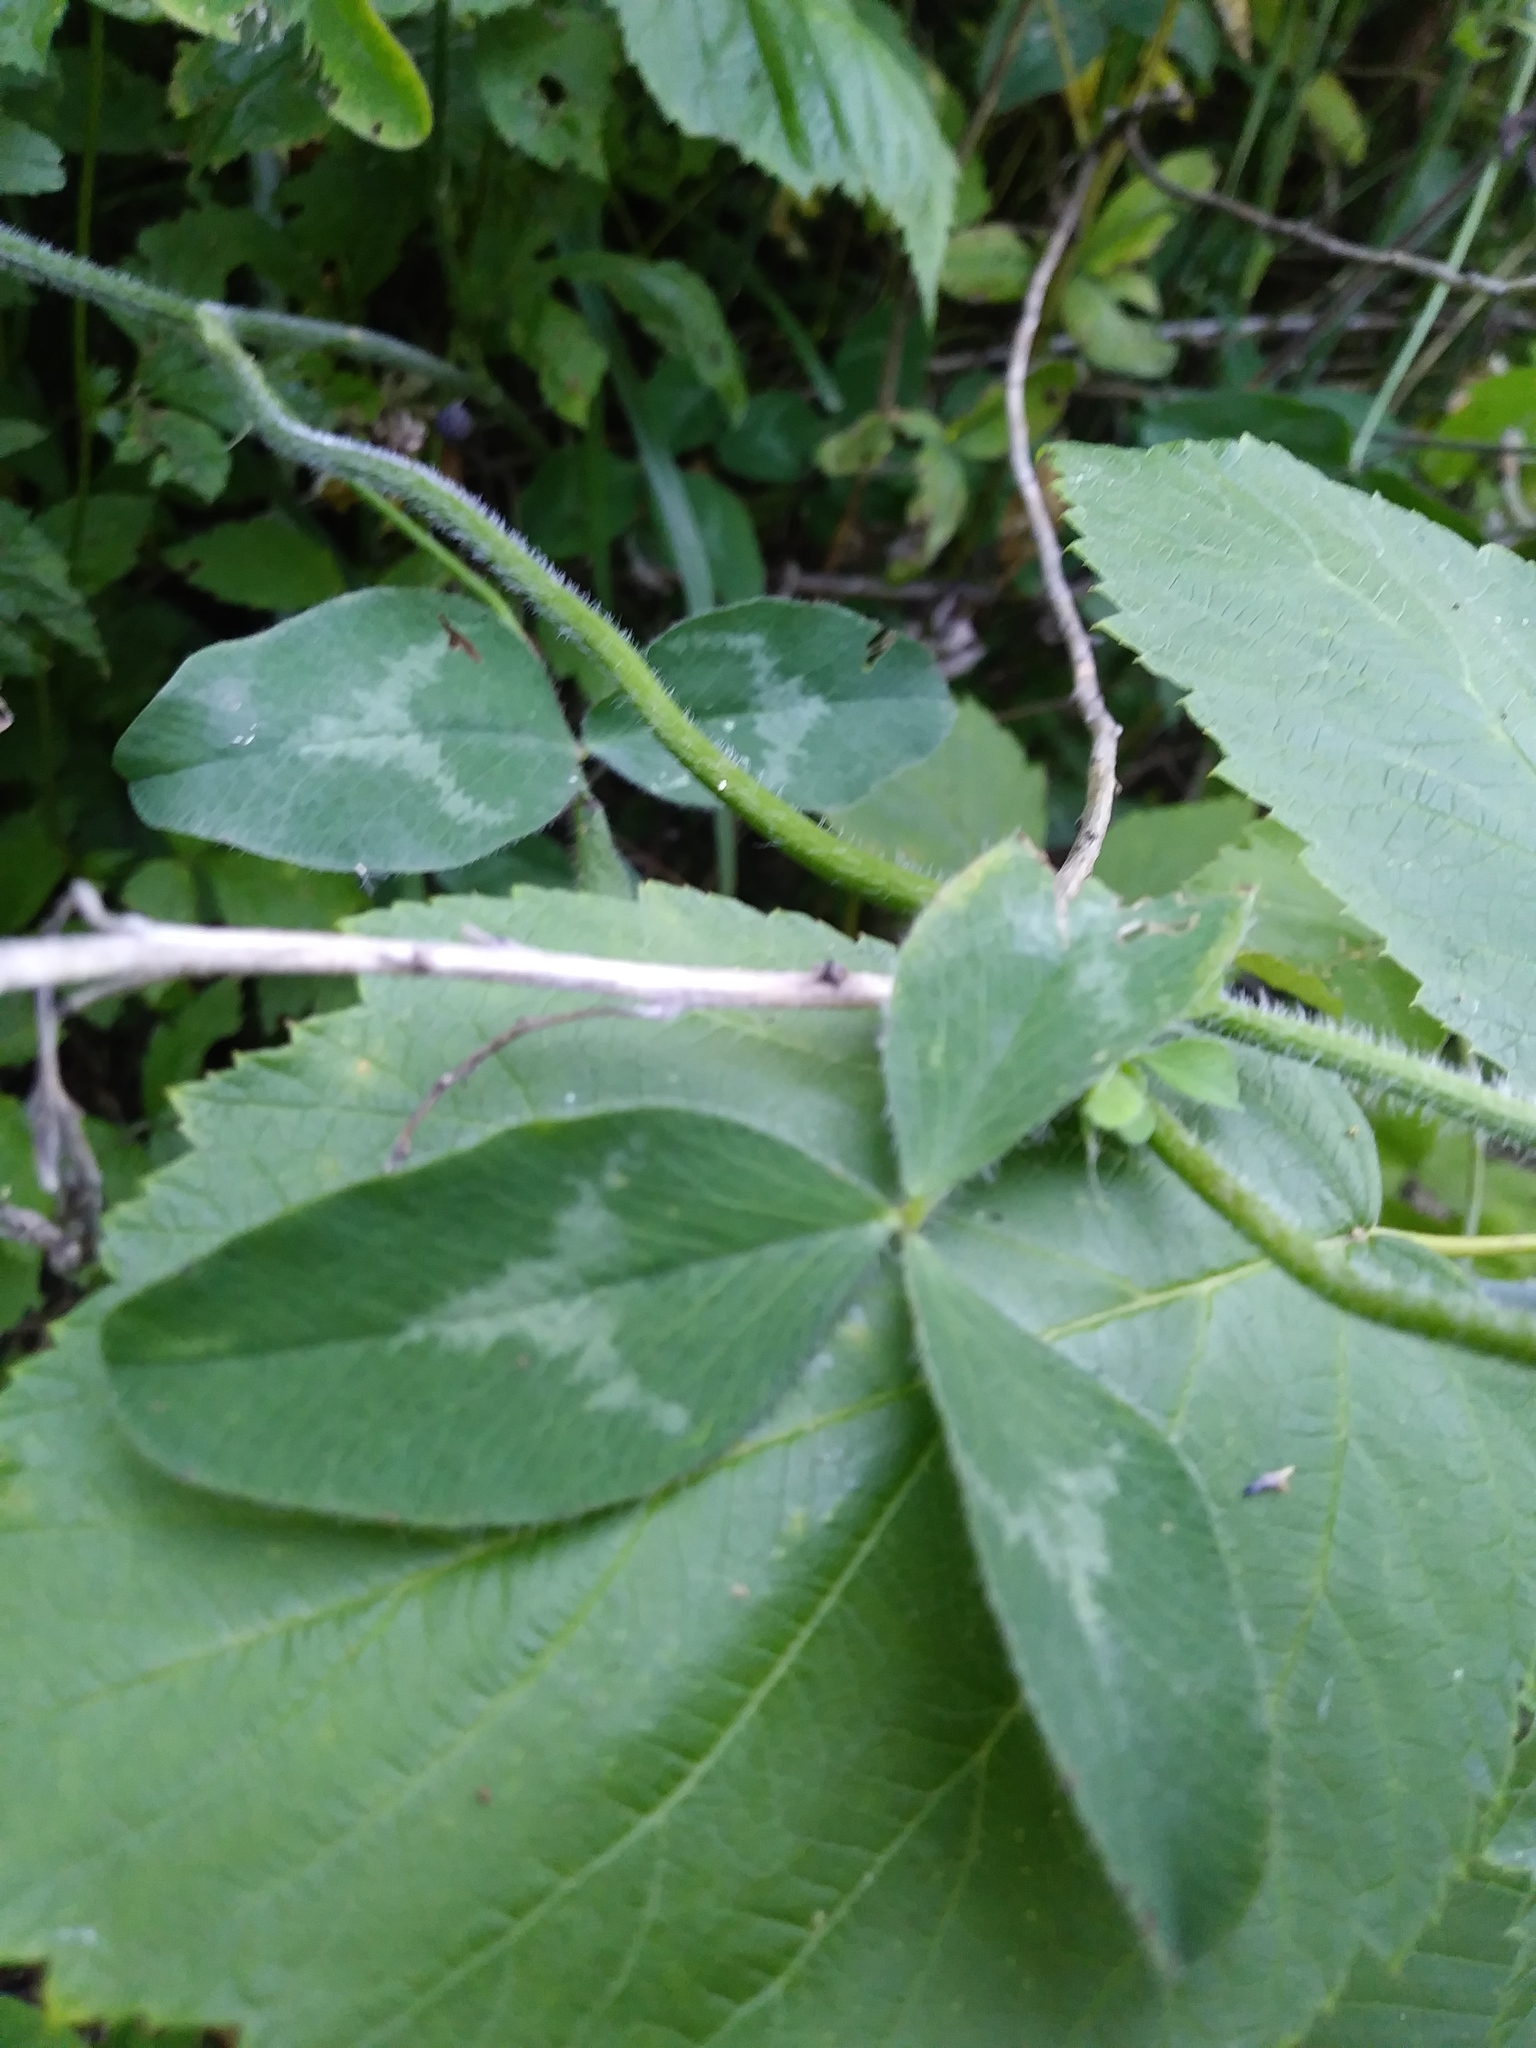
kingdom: Plantae
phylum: Tracheophyta
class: Magnoliopsida
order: Fabales
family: Fabaceae
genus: Trifolium
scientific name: Trifolium pratense
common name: Red clover
